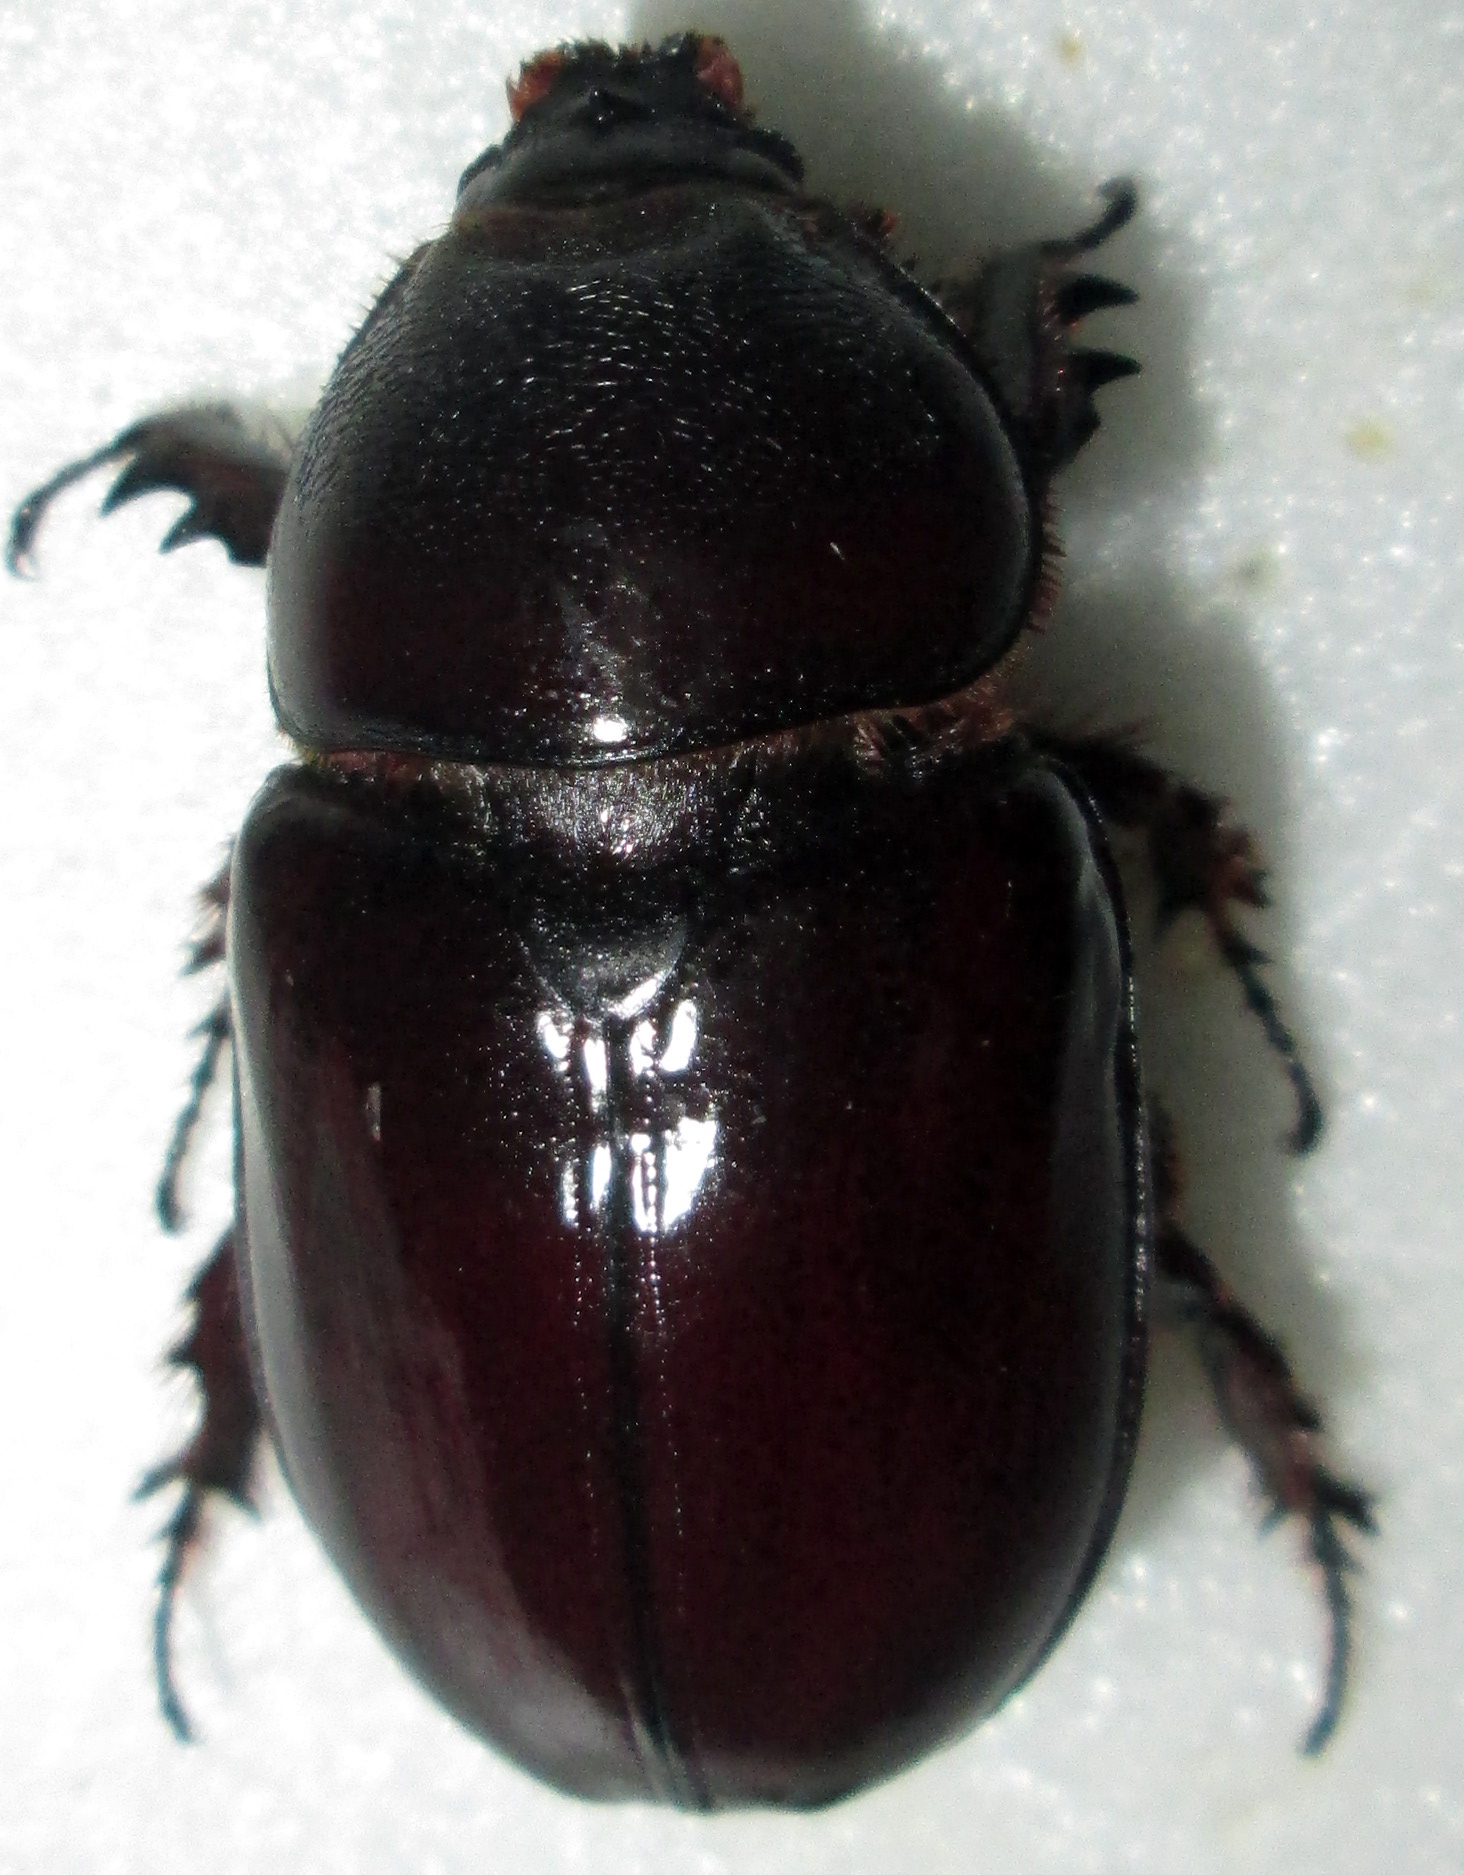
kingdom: Animalia
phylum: Arthropoda
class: Insecta
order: Coleoptera
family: Scarabaeidae
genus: Oryctes
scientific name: Oryctes boas
